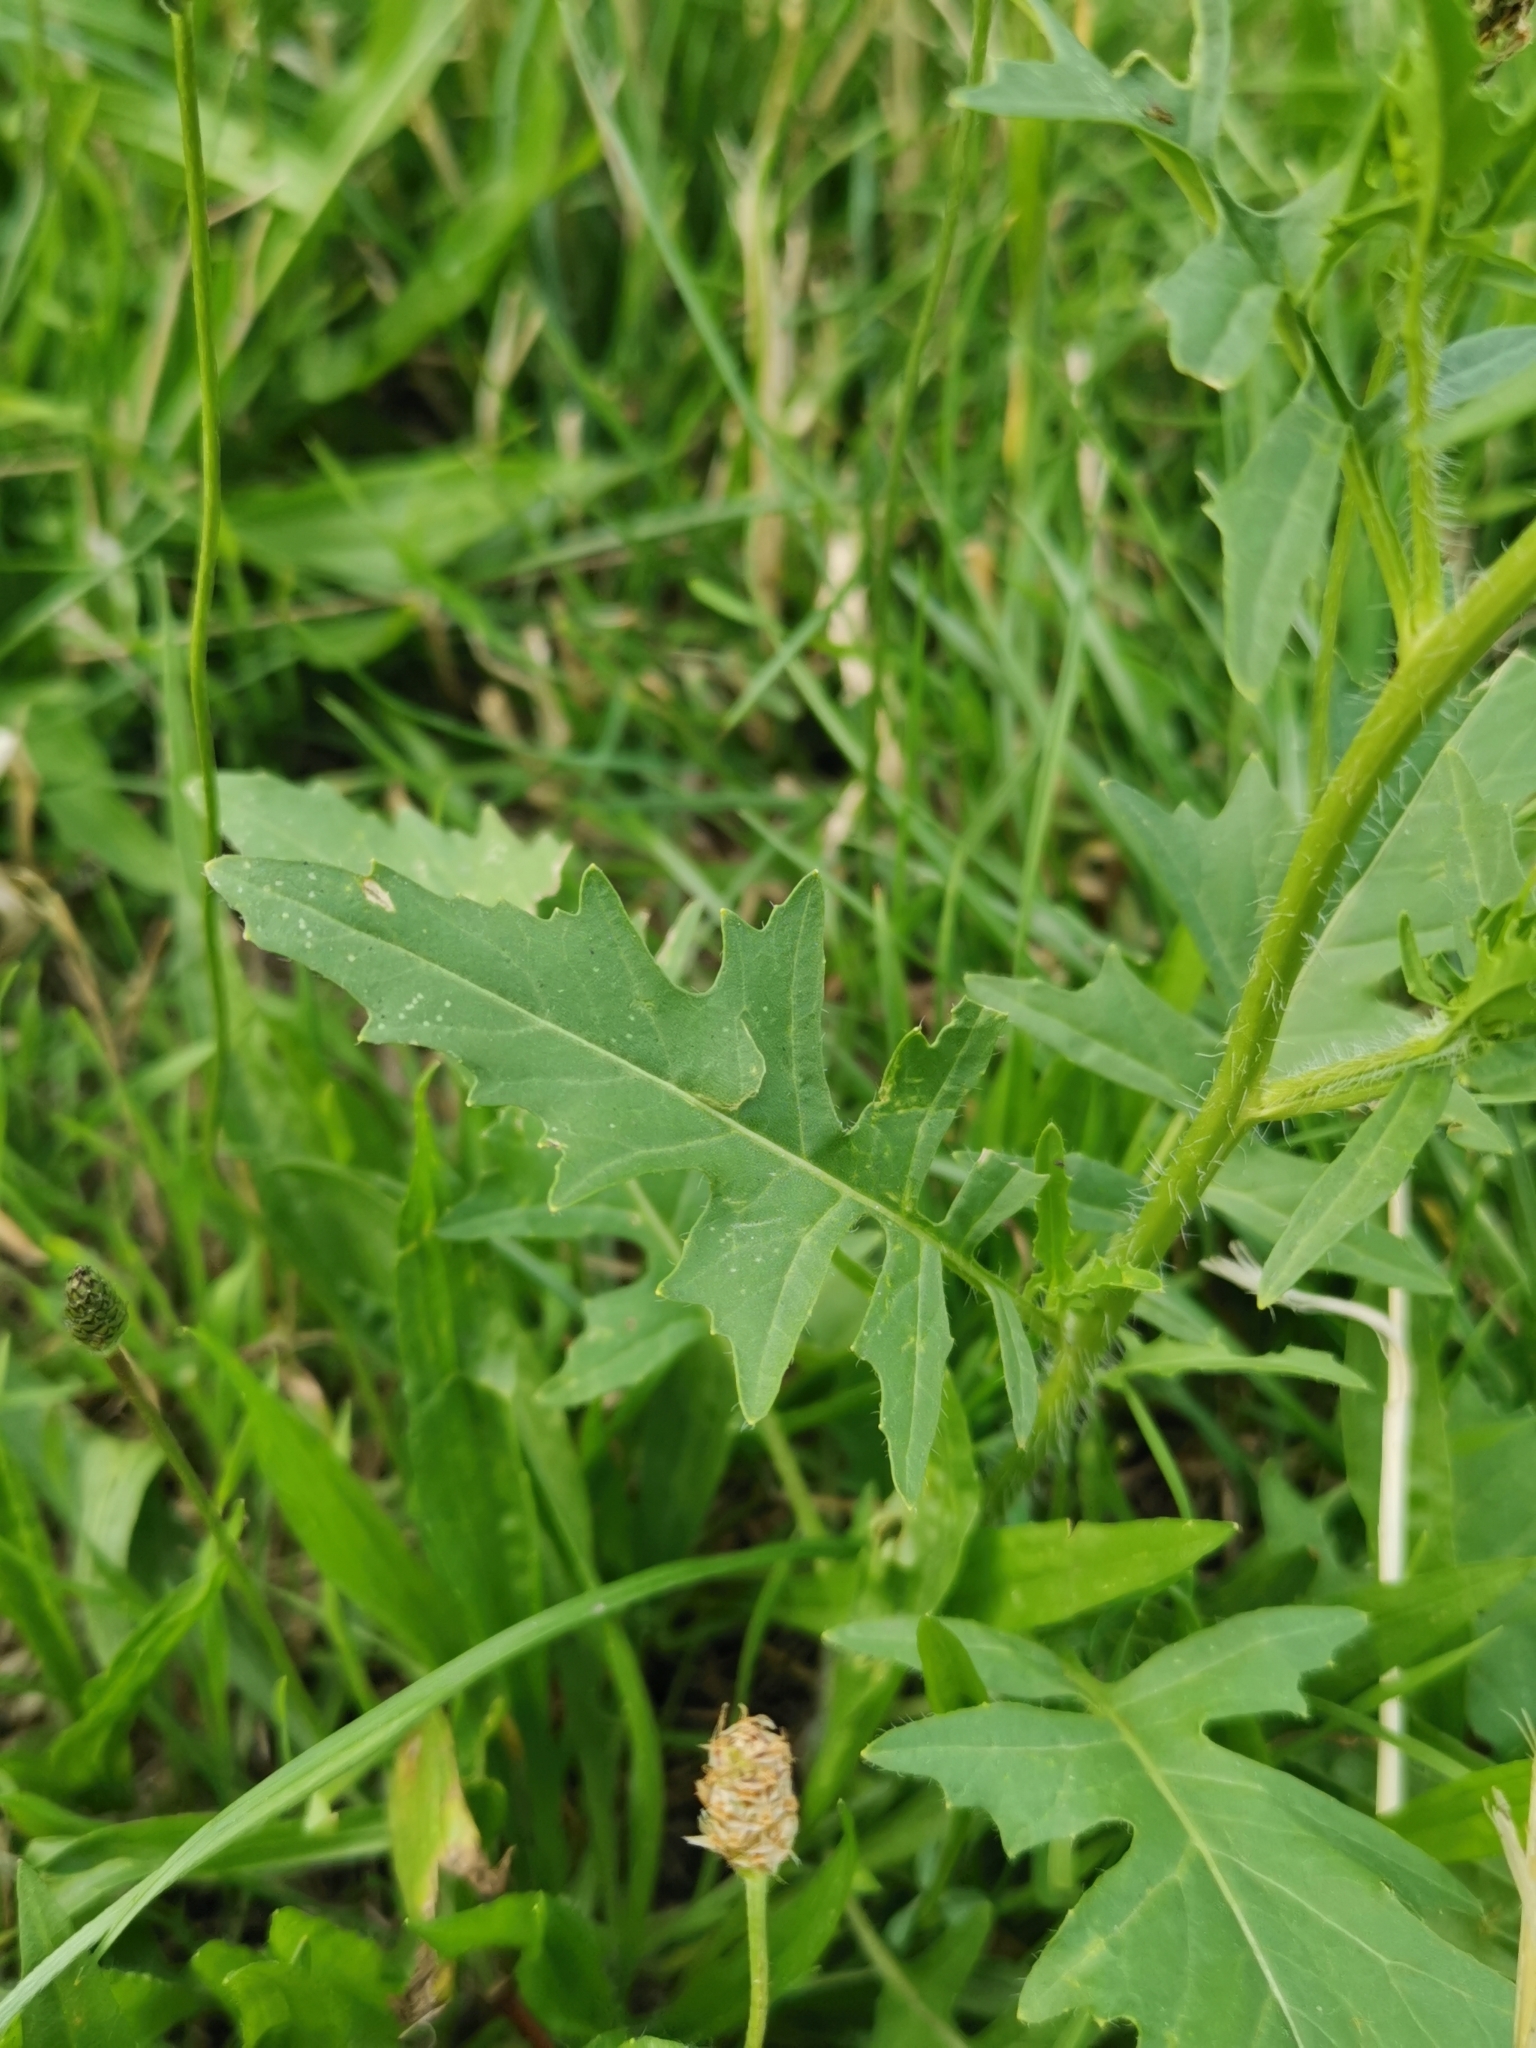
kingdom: Plantae
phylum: Tracheophyta
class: Magnoliopsida
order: Brassicales
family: Brassicaceae
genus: Sisymbrium
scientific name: Sisymbrium loeselii
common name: False london-rocket
